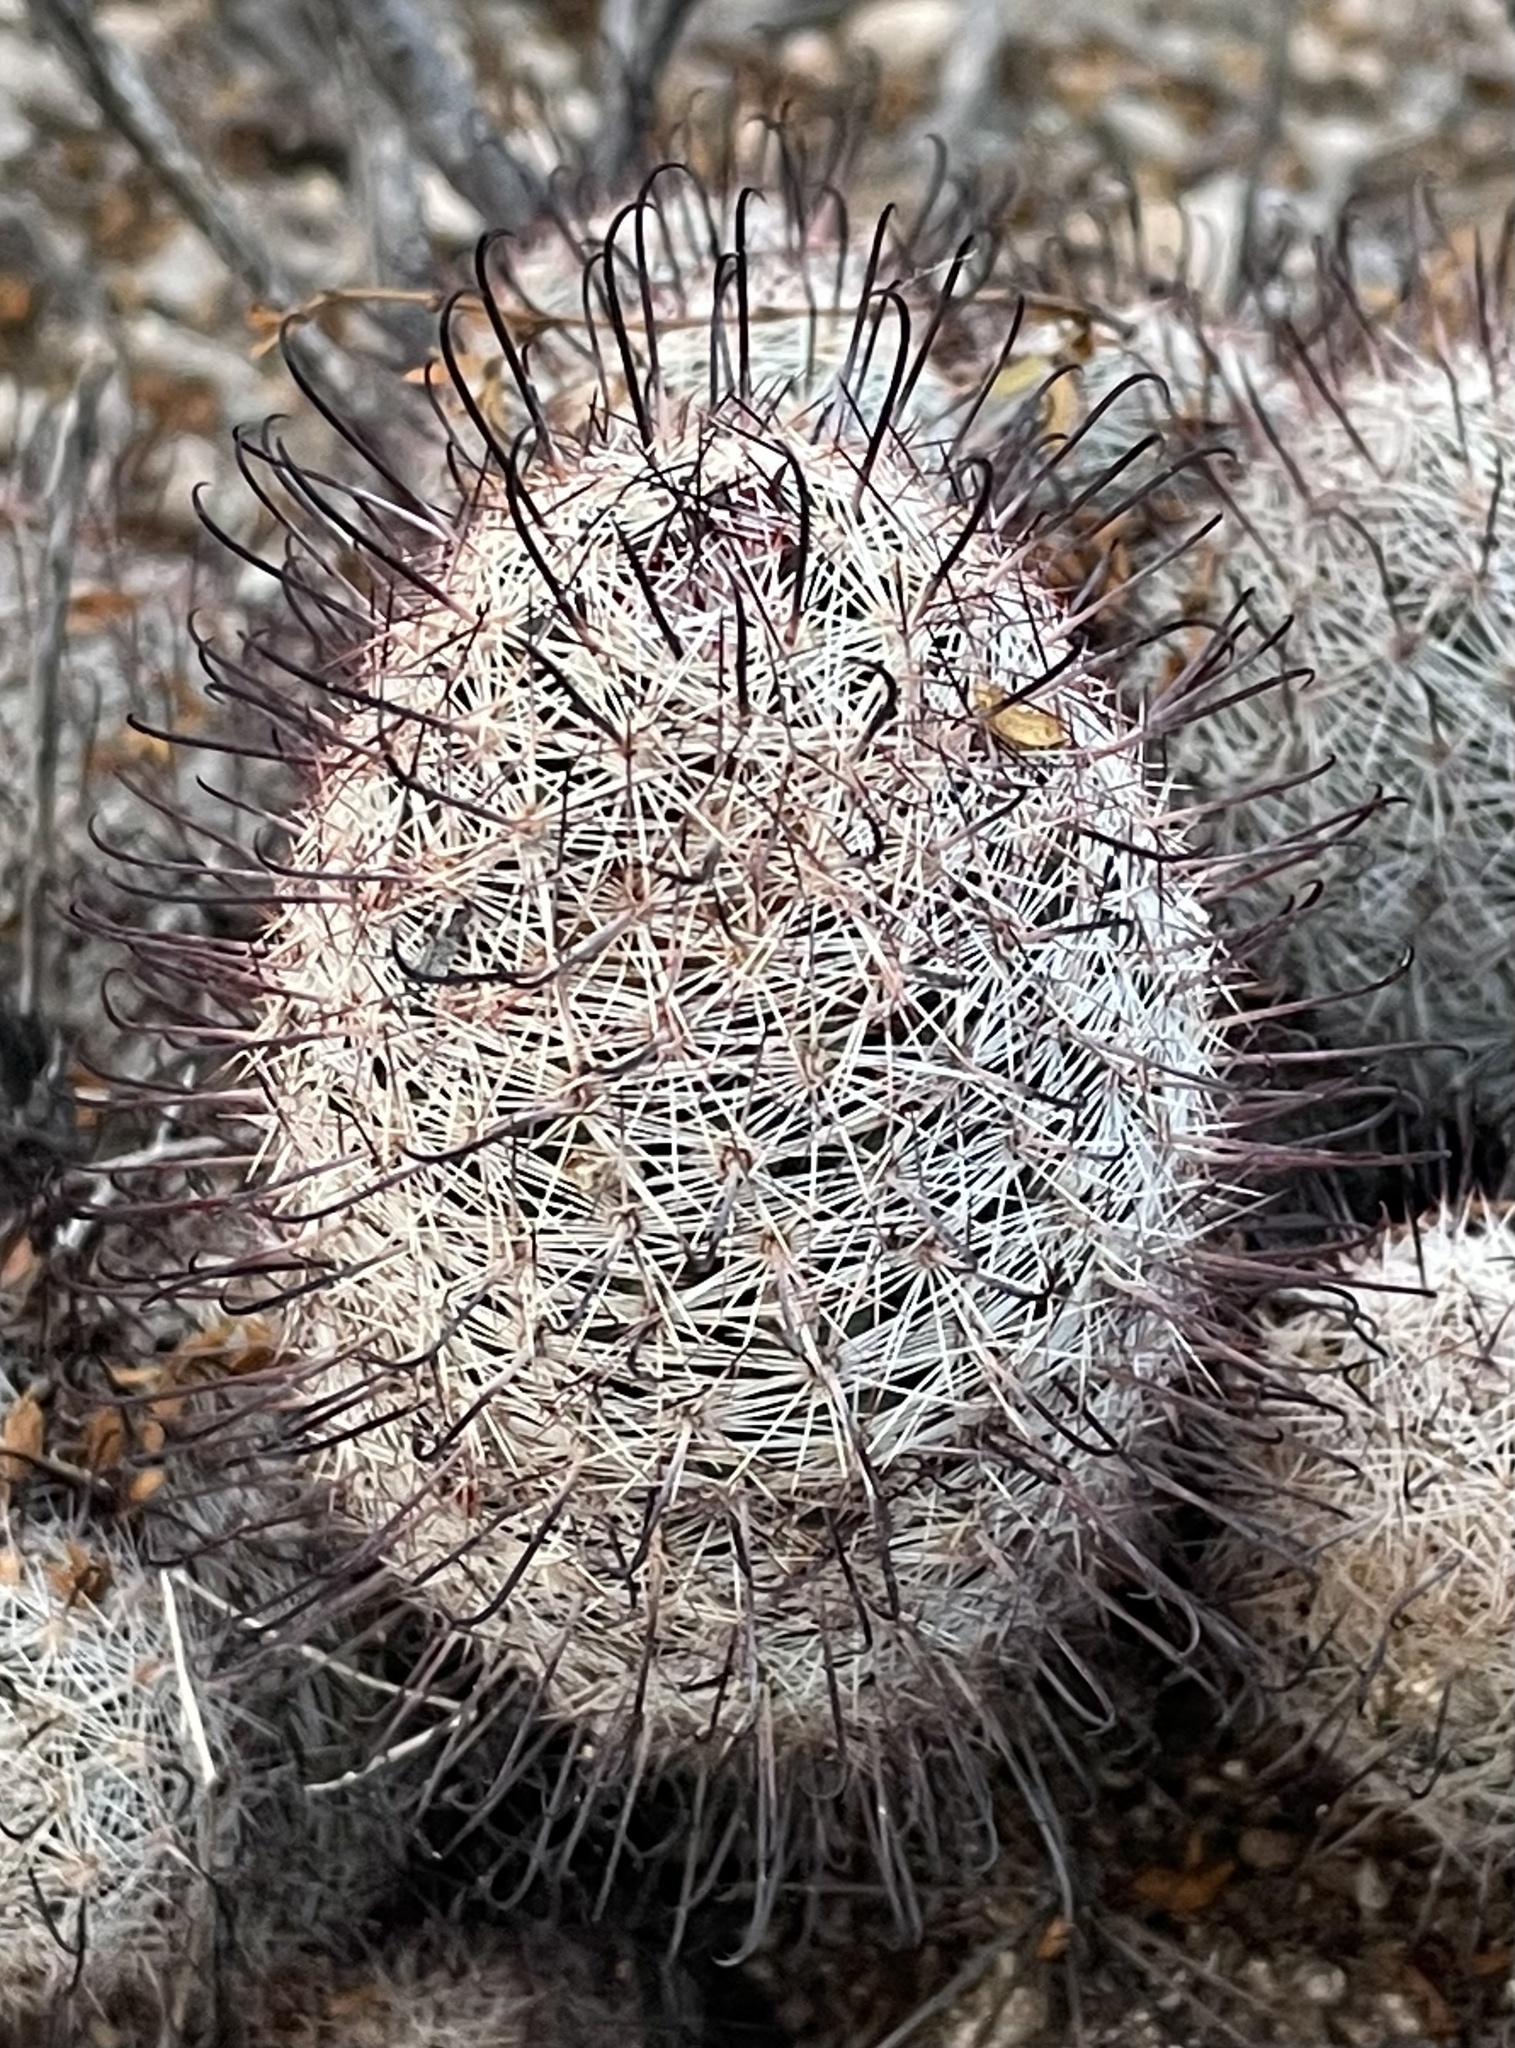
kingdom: Plantae
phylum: Tracheophyta
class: Magnoliopsida
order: Caryophyllales
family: Cactaceae
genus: Cochemiea
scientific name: Cochemiea grahamii
